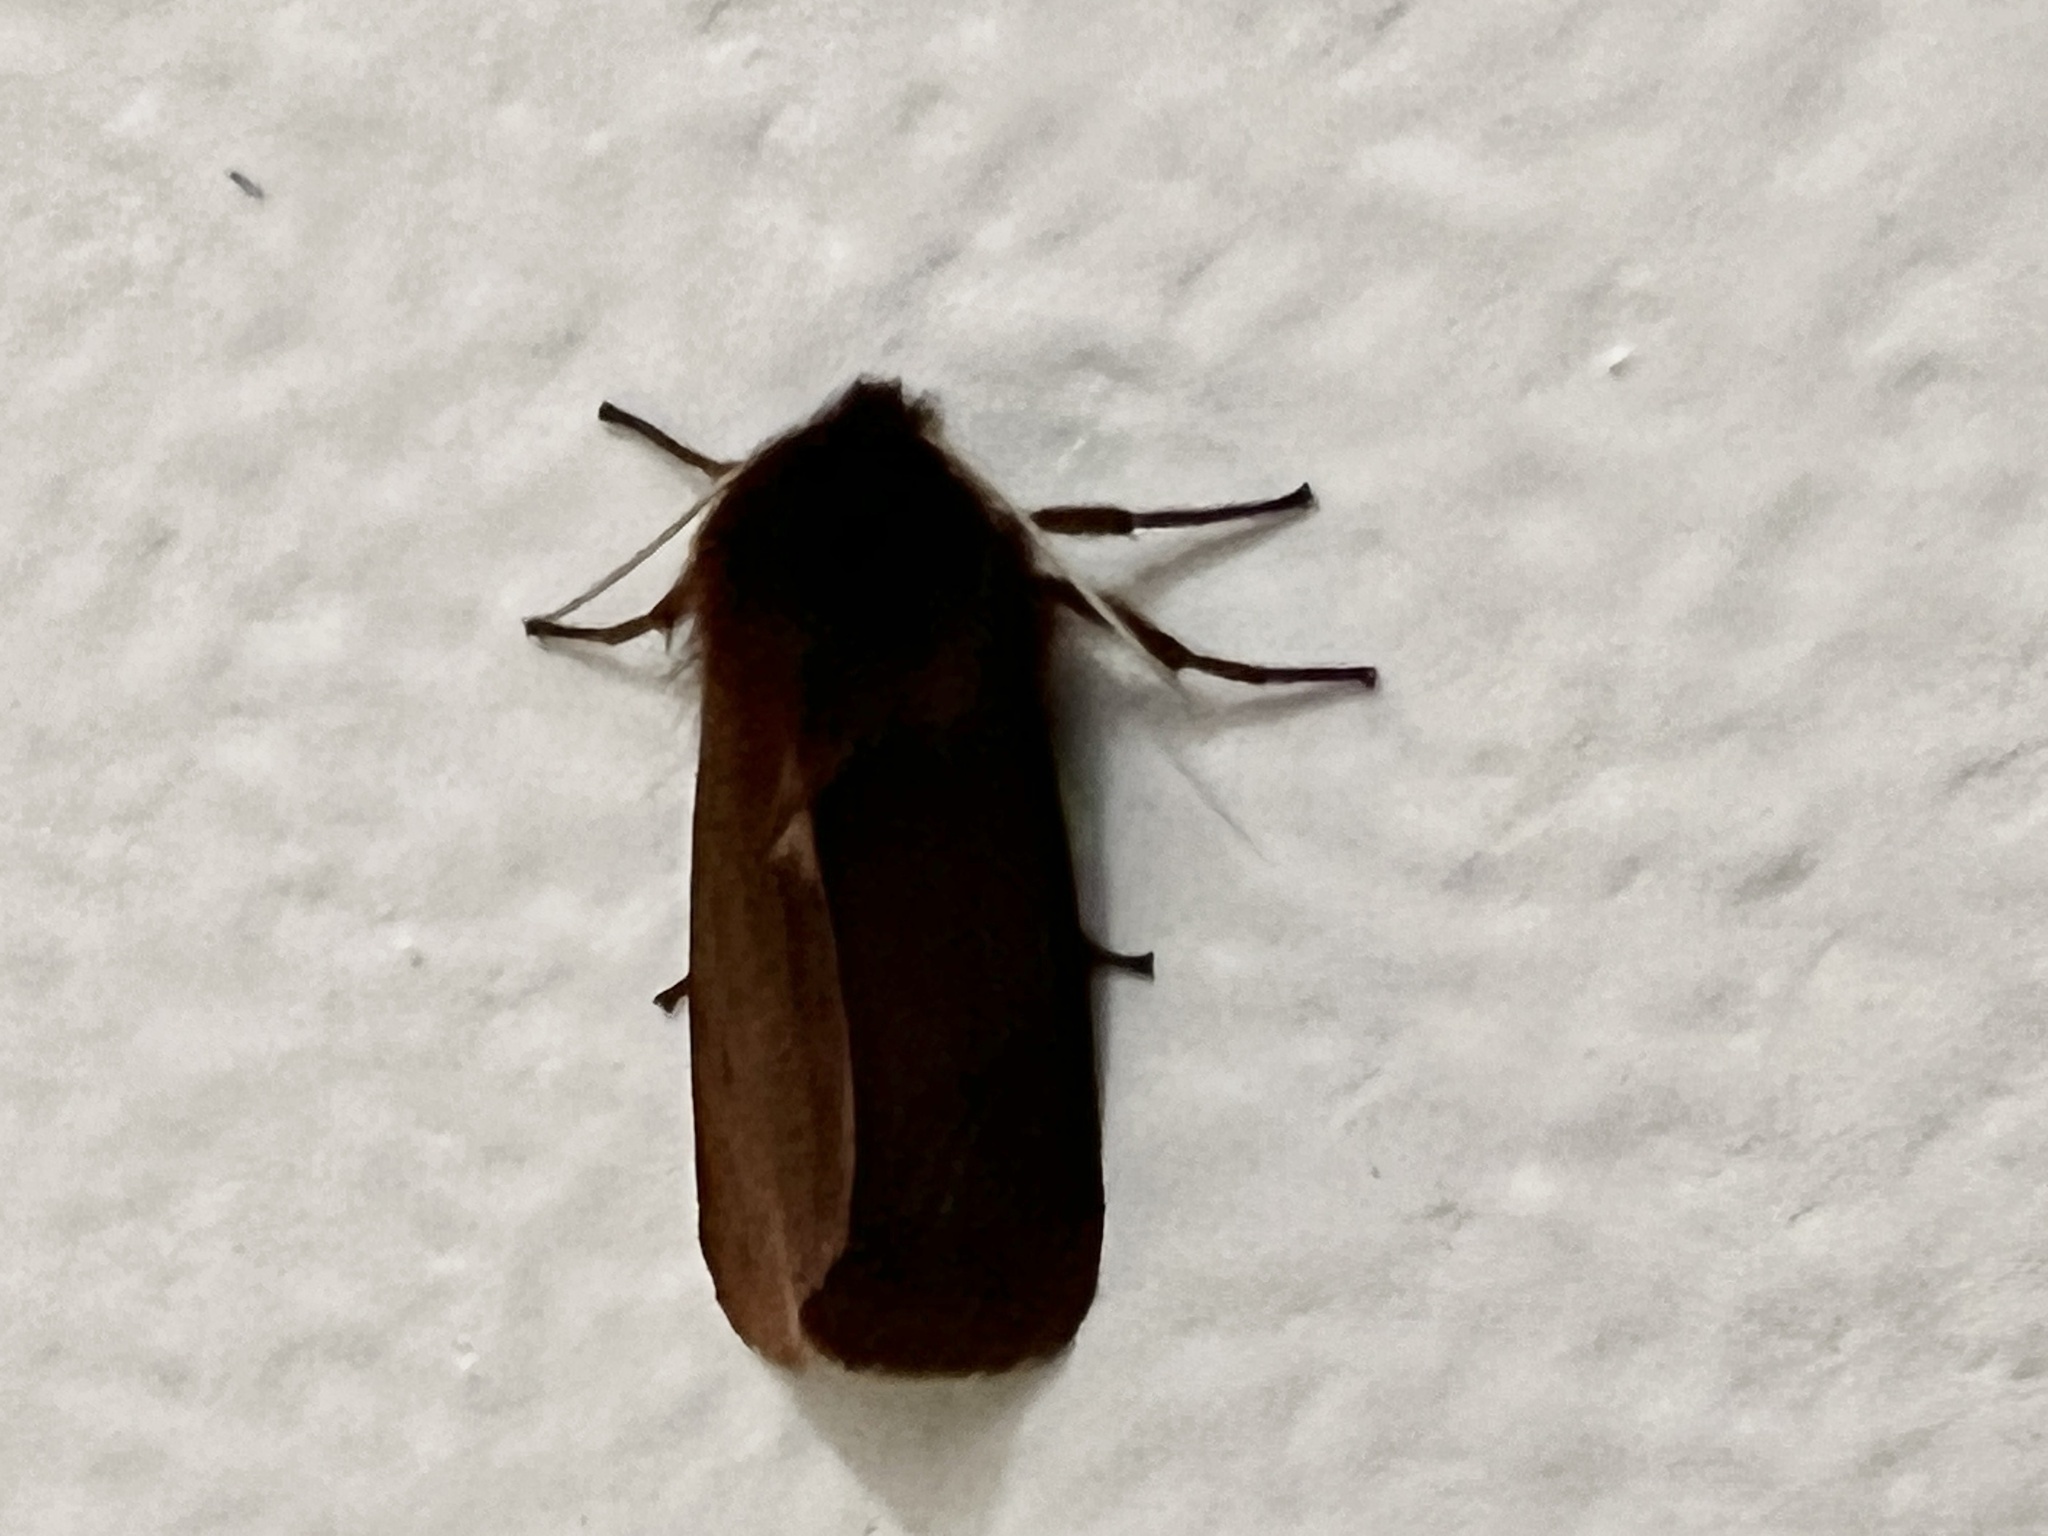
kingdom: Animalia
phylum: Arthropoda
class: Insecta
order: Lepidoptera
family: Erebidae
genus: Phragmatobia
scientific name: Phragmatobia fuliginosa
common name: Ruby tiger
